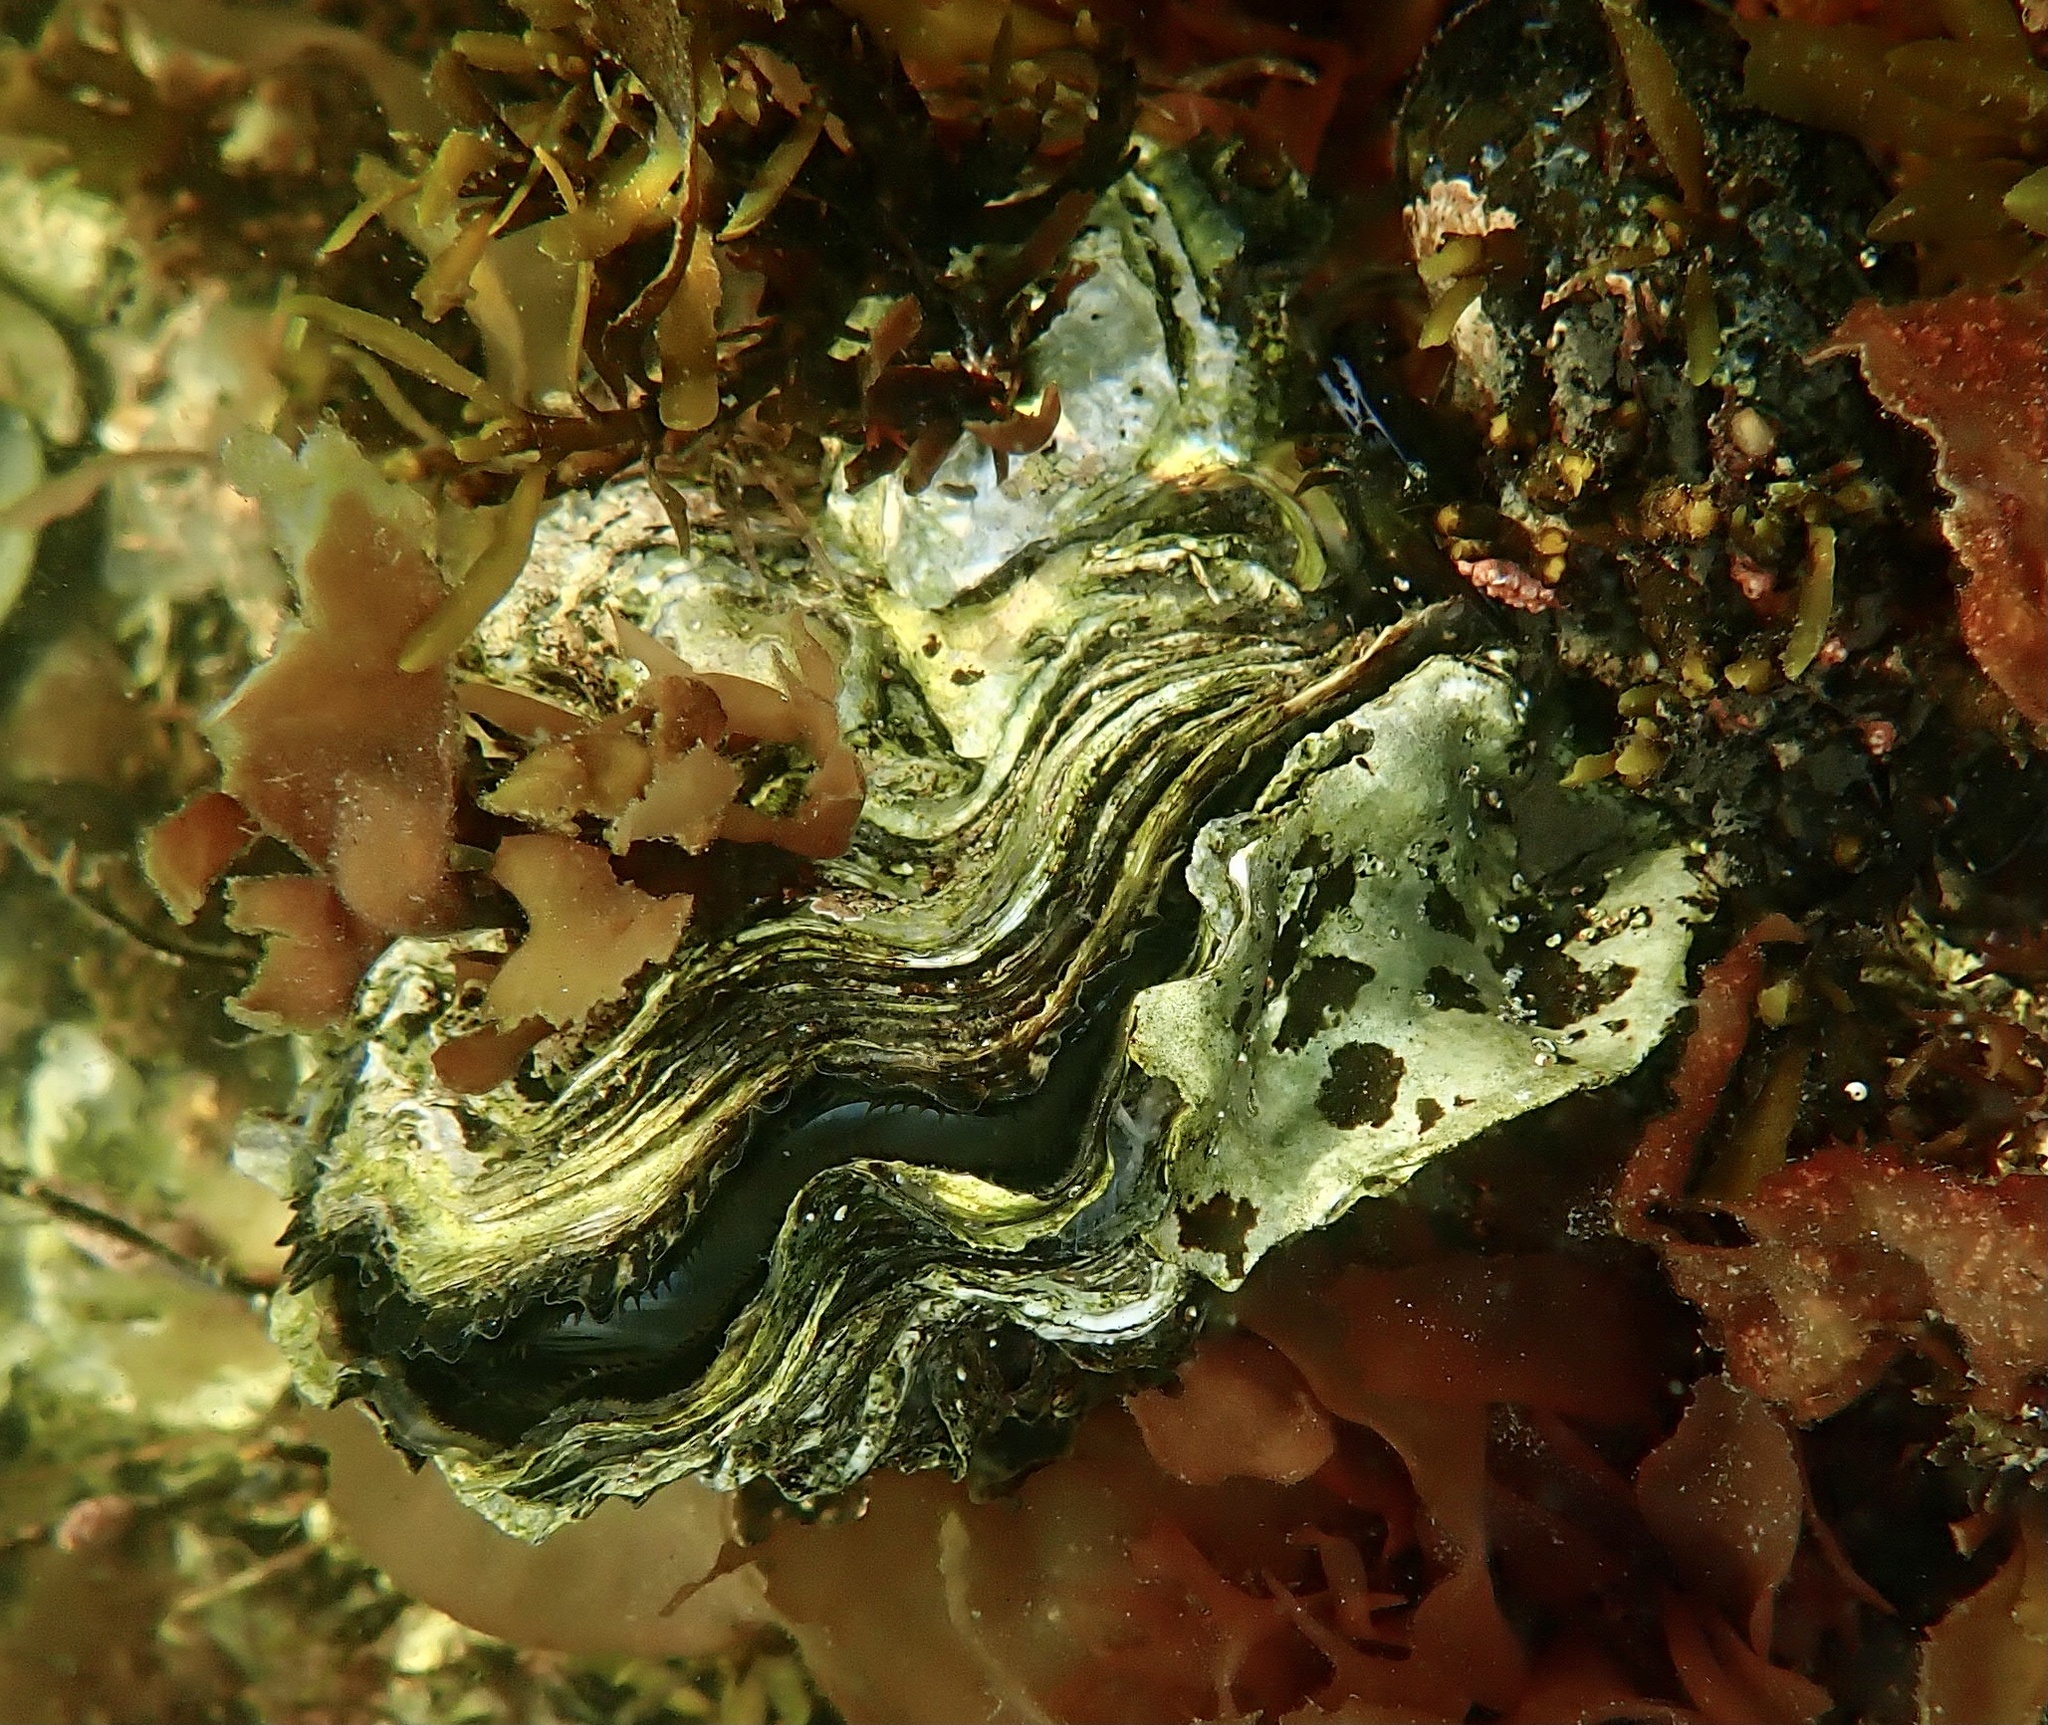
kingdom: Animalia
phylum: Mollusca
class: Bivalvia
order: Ostreida
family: Ostreidae
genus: Magallana
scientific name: Magallana gigas
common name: Pacific oyster
